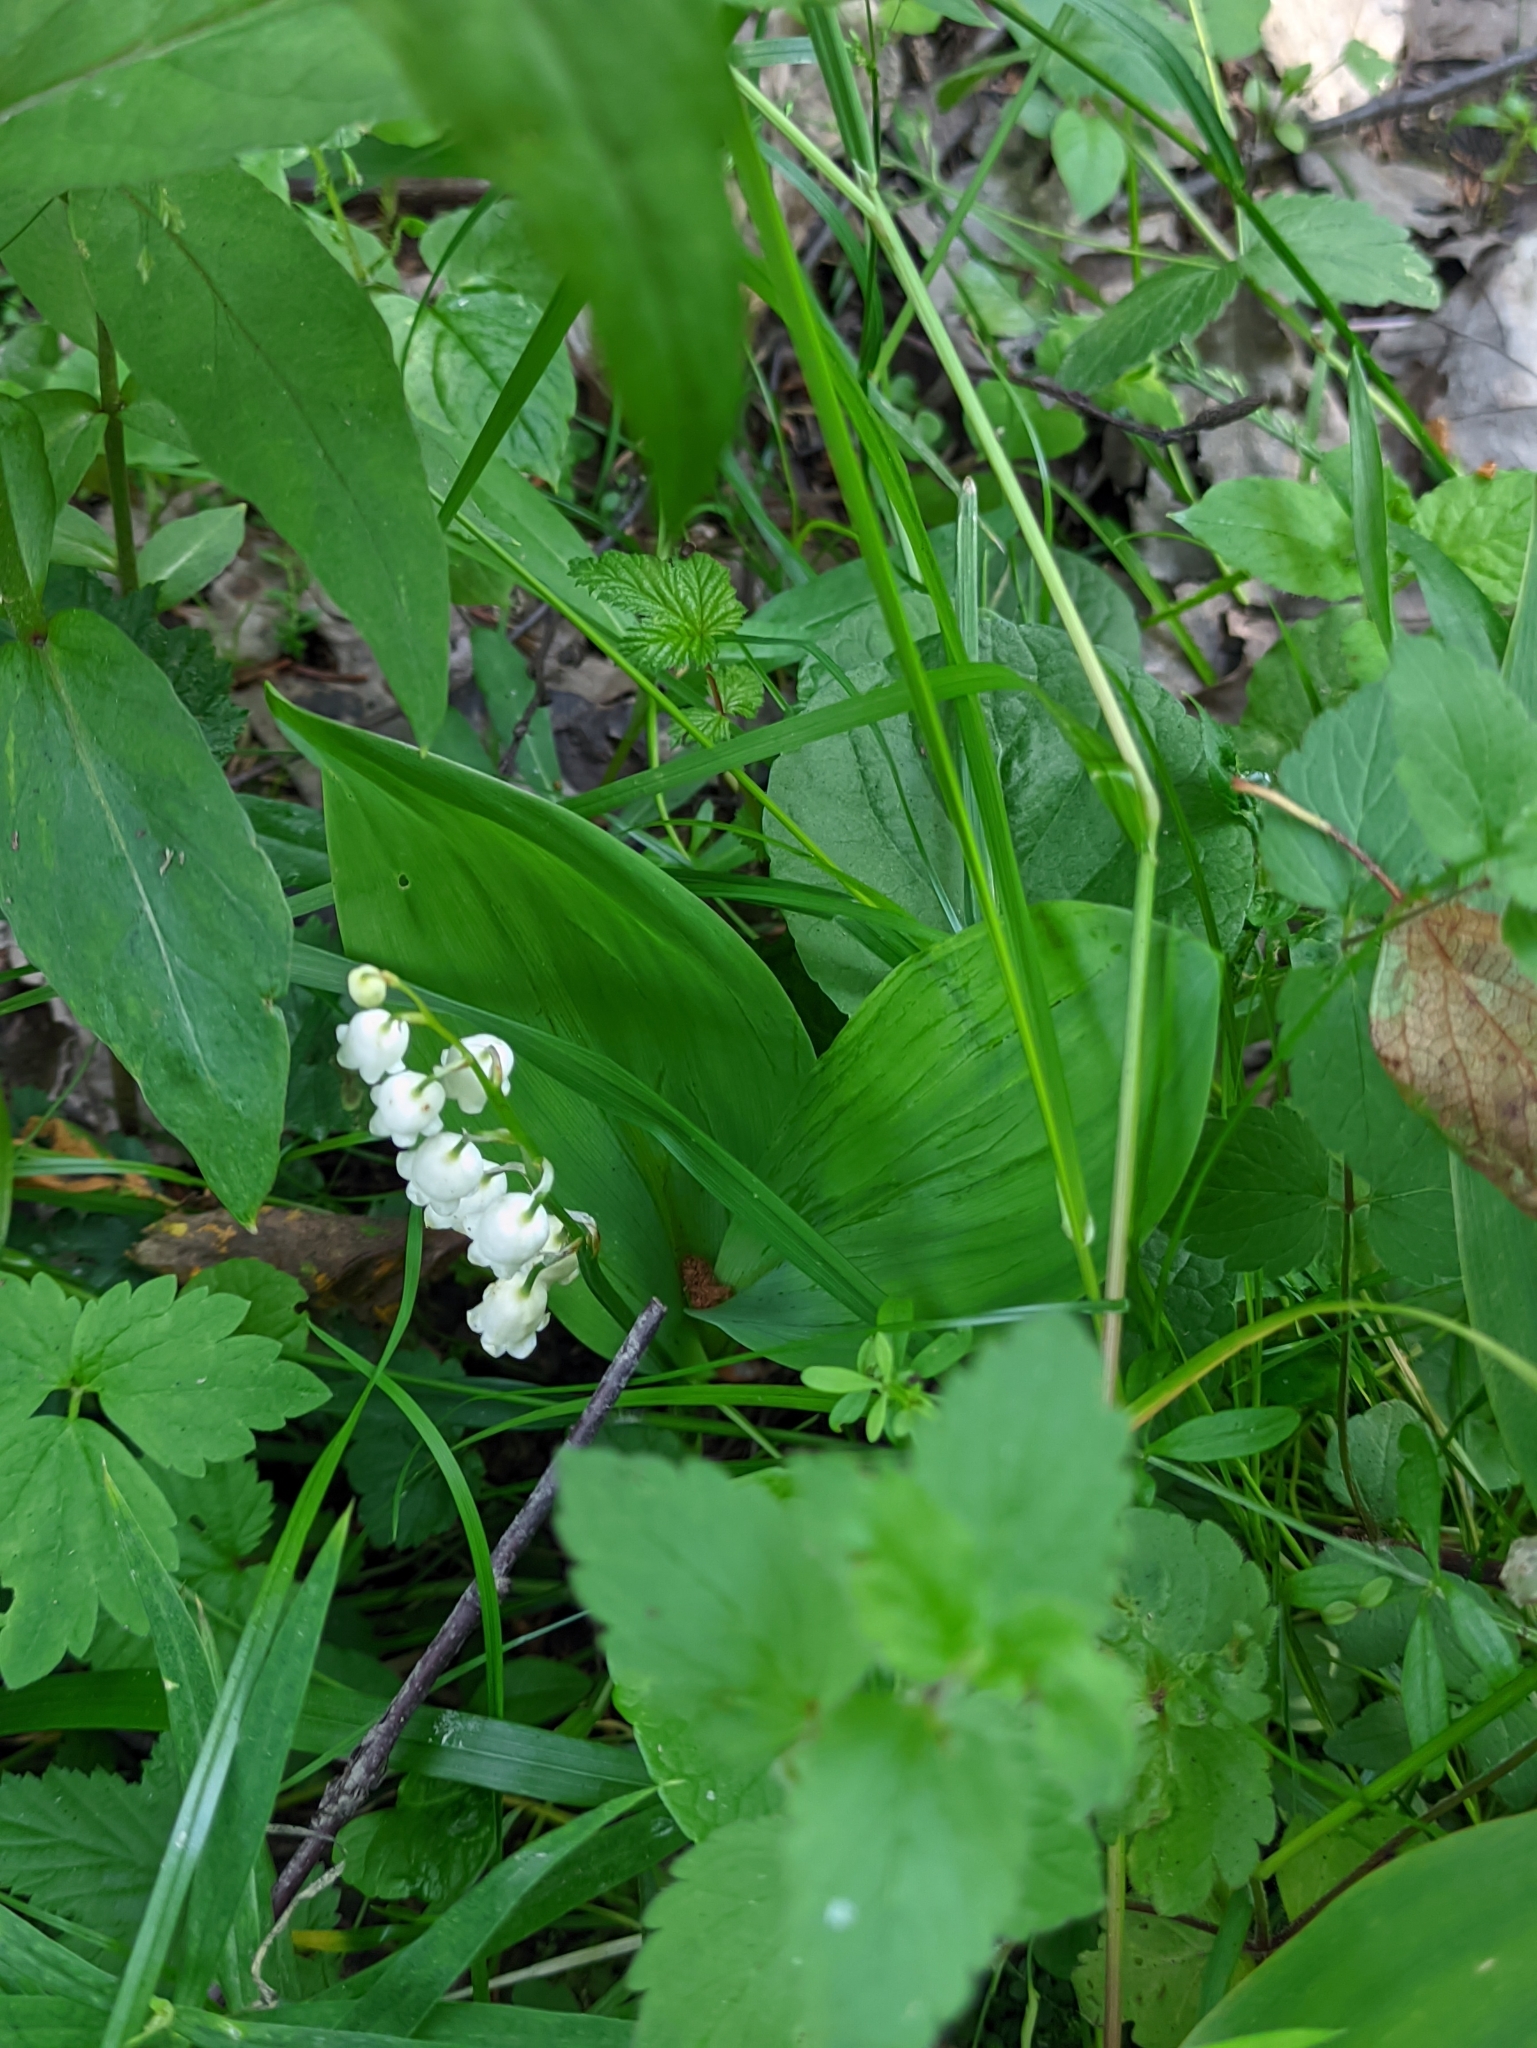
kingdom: Plantae
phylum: Tracheophyta
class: Liliopsida
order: Asparagales
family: Asparagaceae
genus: Convallaria
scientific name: Convallaria majalis
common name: Lily-of-the-valley
